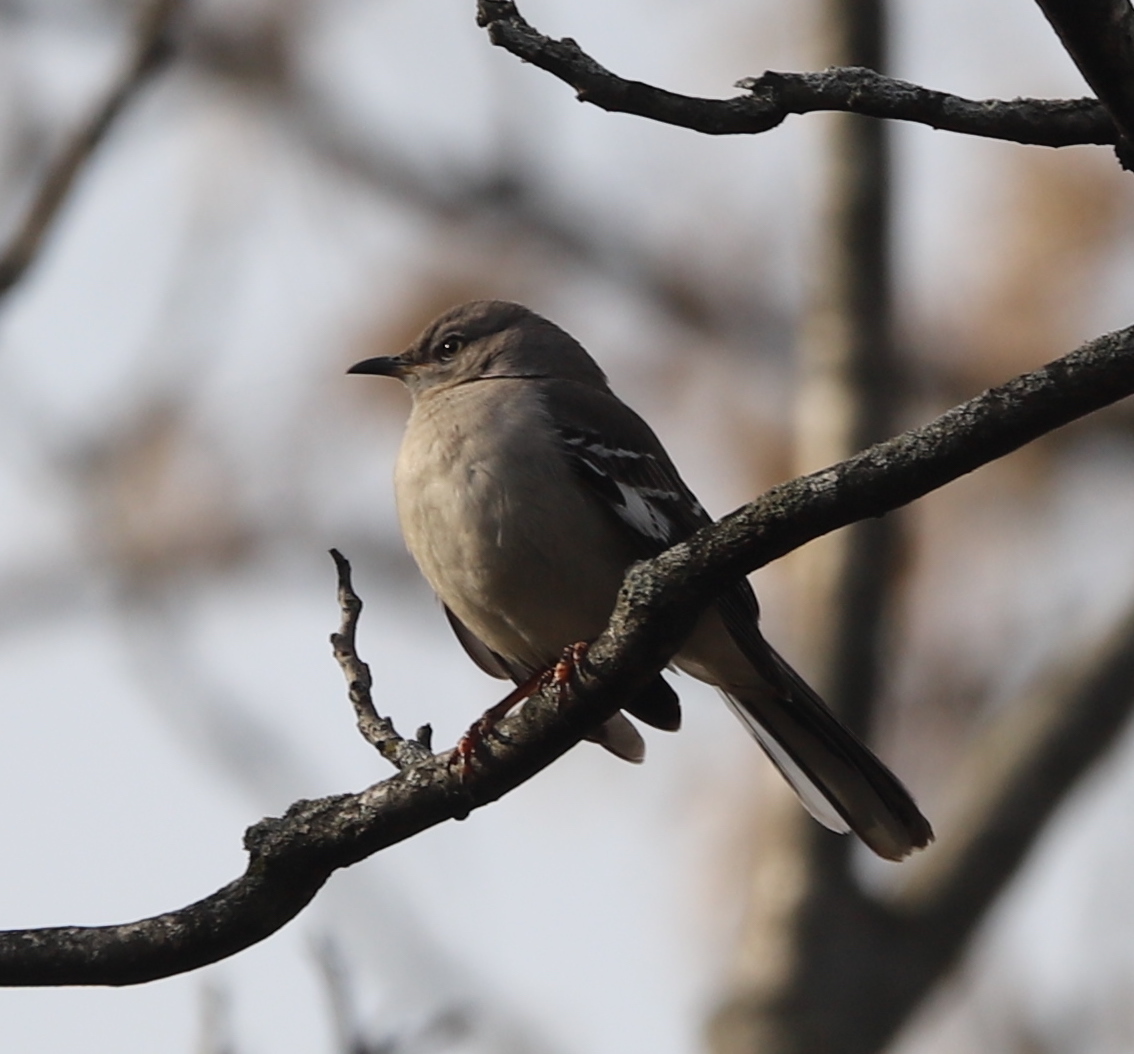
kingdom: Animalia
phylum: Chordata
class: Aves
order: Passeriformes
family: Mimidae
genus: Mimus
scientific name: Mimus polyglottos
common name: Northern mockingbird
